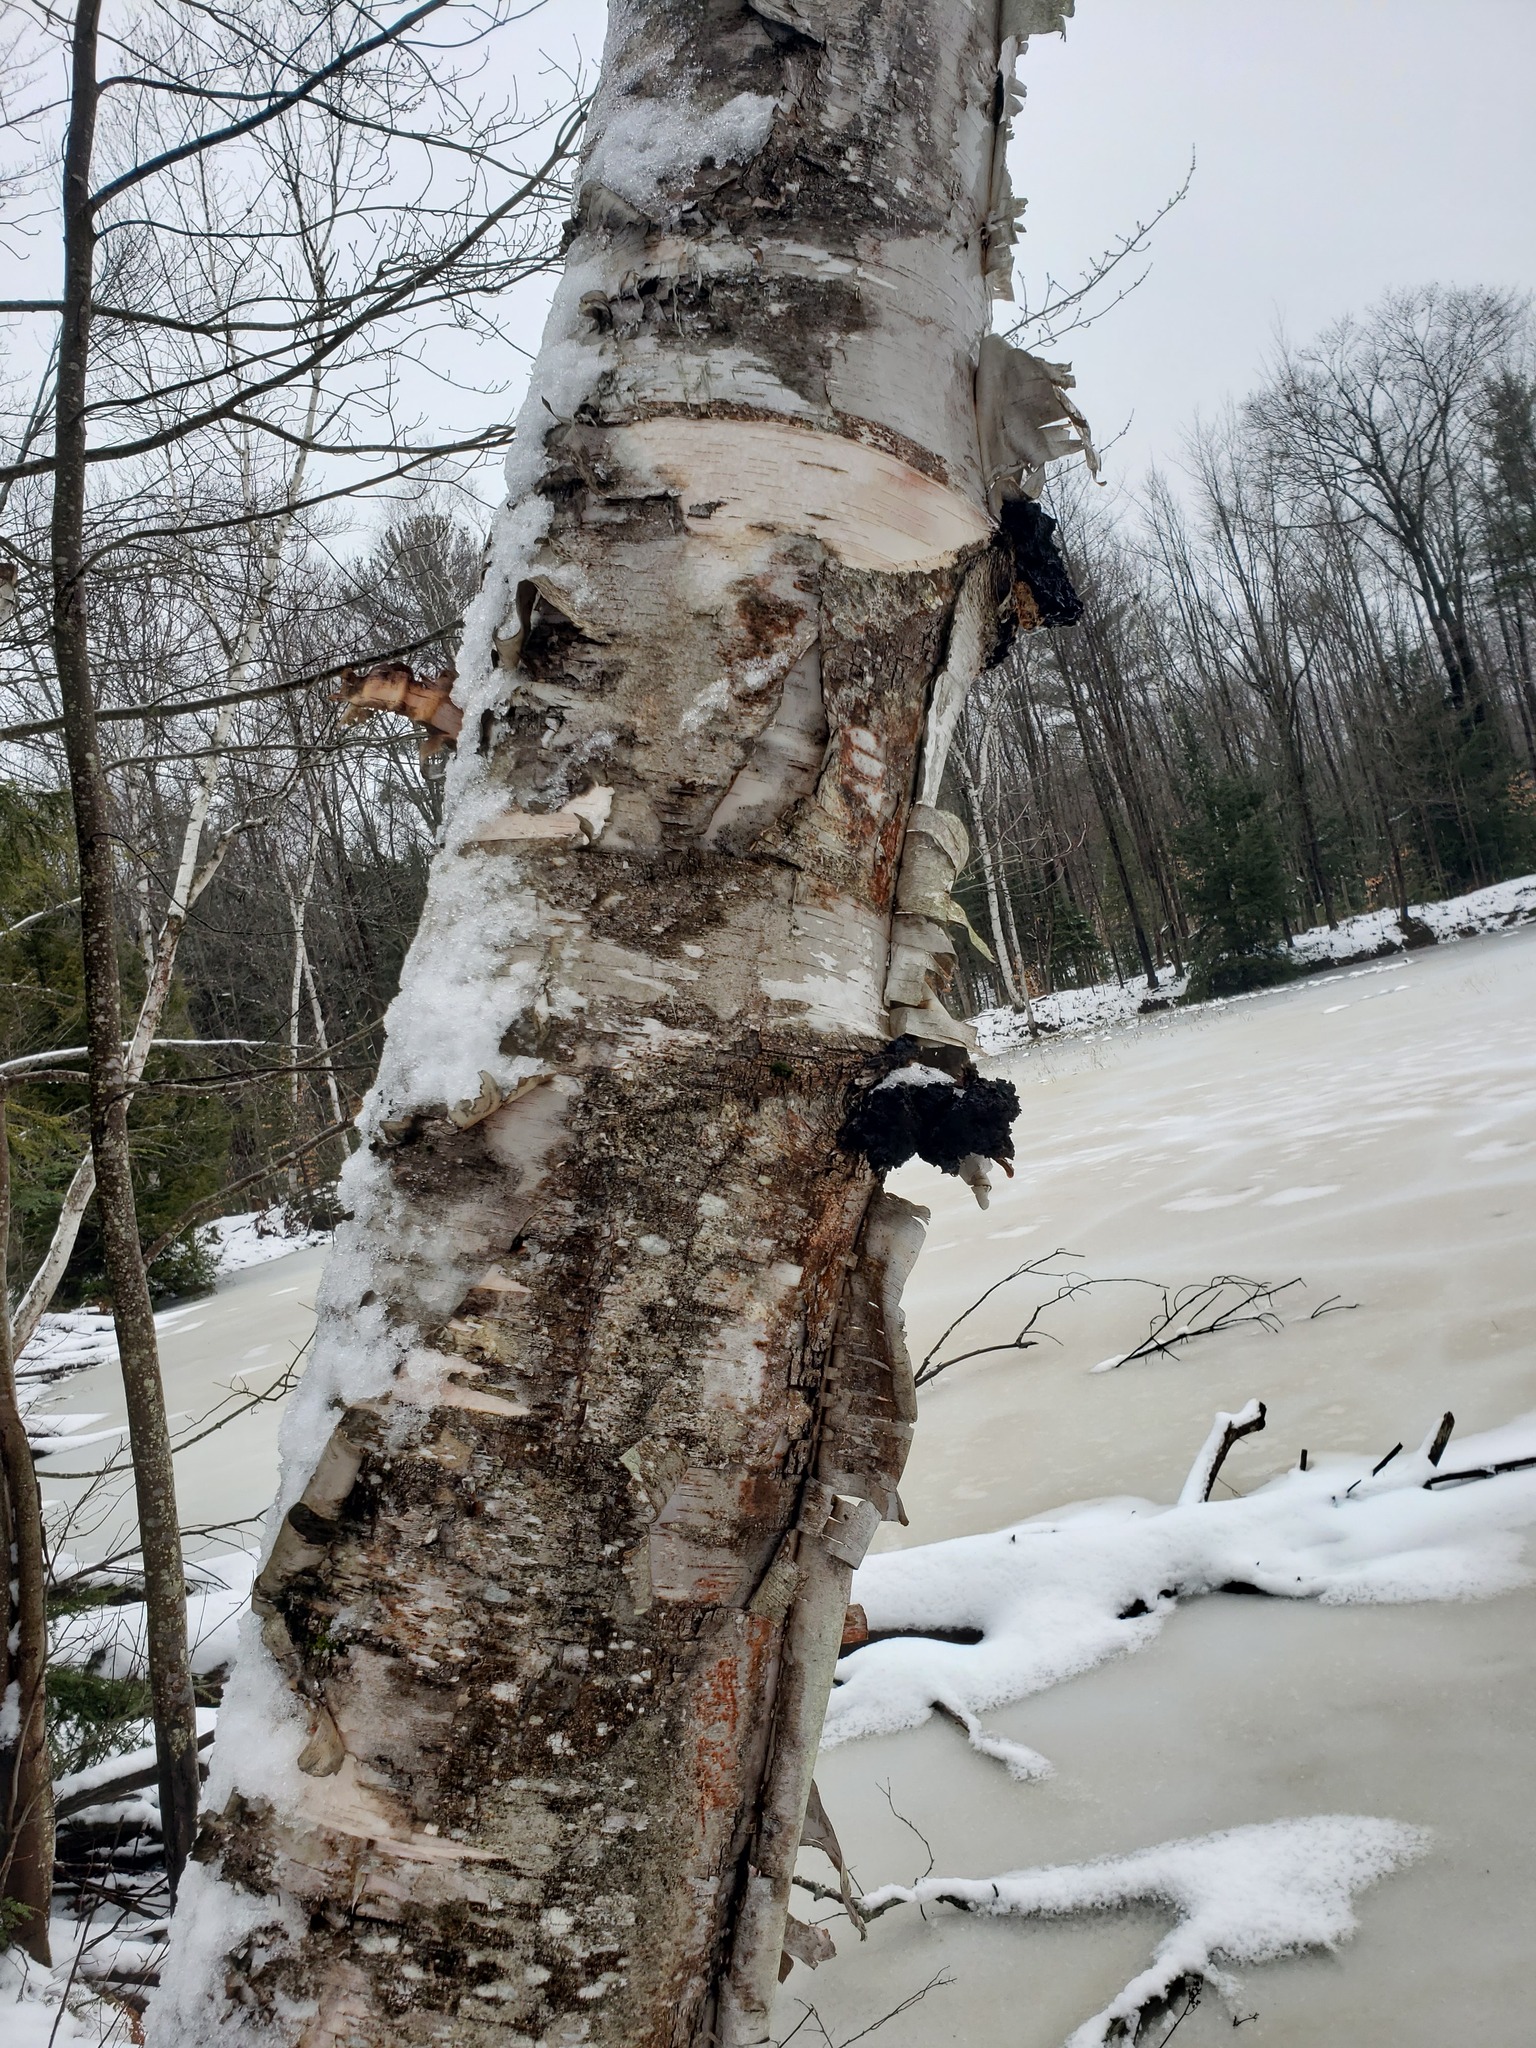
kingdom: Fungi
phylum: Basidiomycota
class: Agaricomycetes
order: Hymenochaetales
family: Hymenochaetaceae
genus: Inonotus
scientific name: Inonotus obliquus
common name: Chaga
